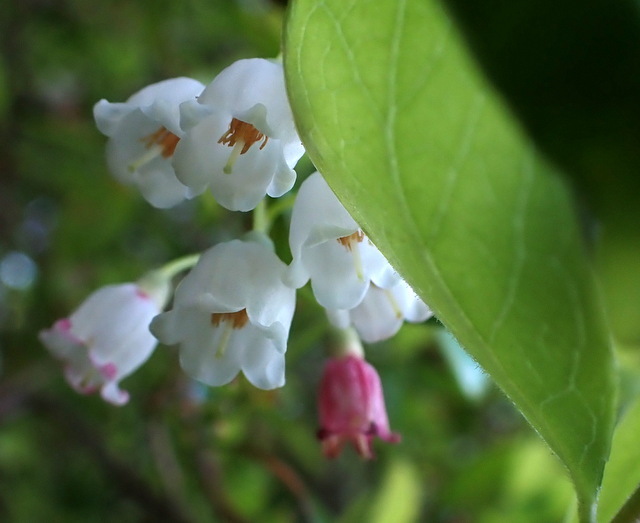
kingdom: Plantae
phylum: Tracheophyta
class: Magnoliopsida
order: Ericales
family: Ericaceae
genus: Vaccinium
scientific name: Vaccinium arboreum
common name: Farkleberry
